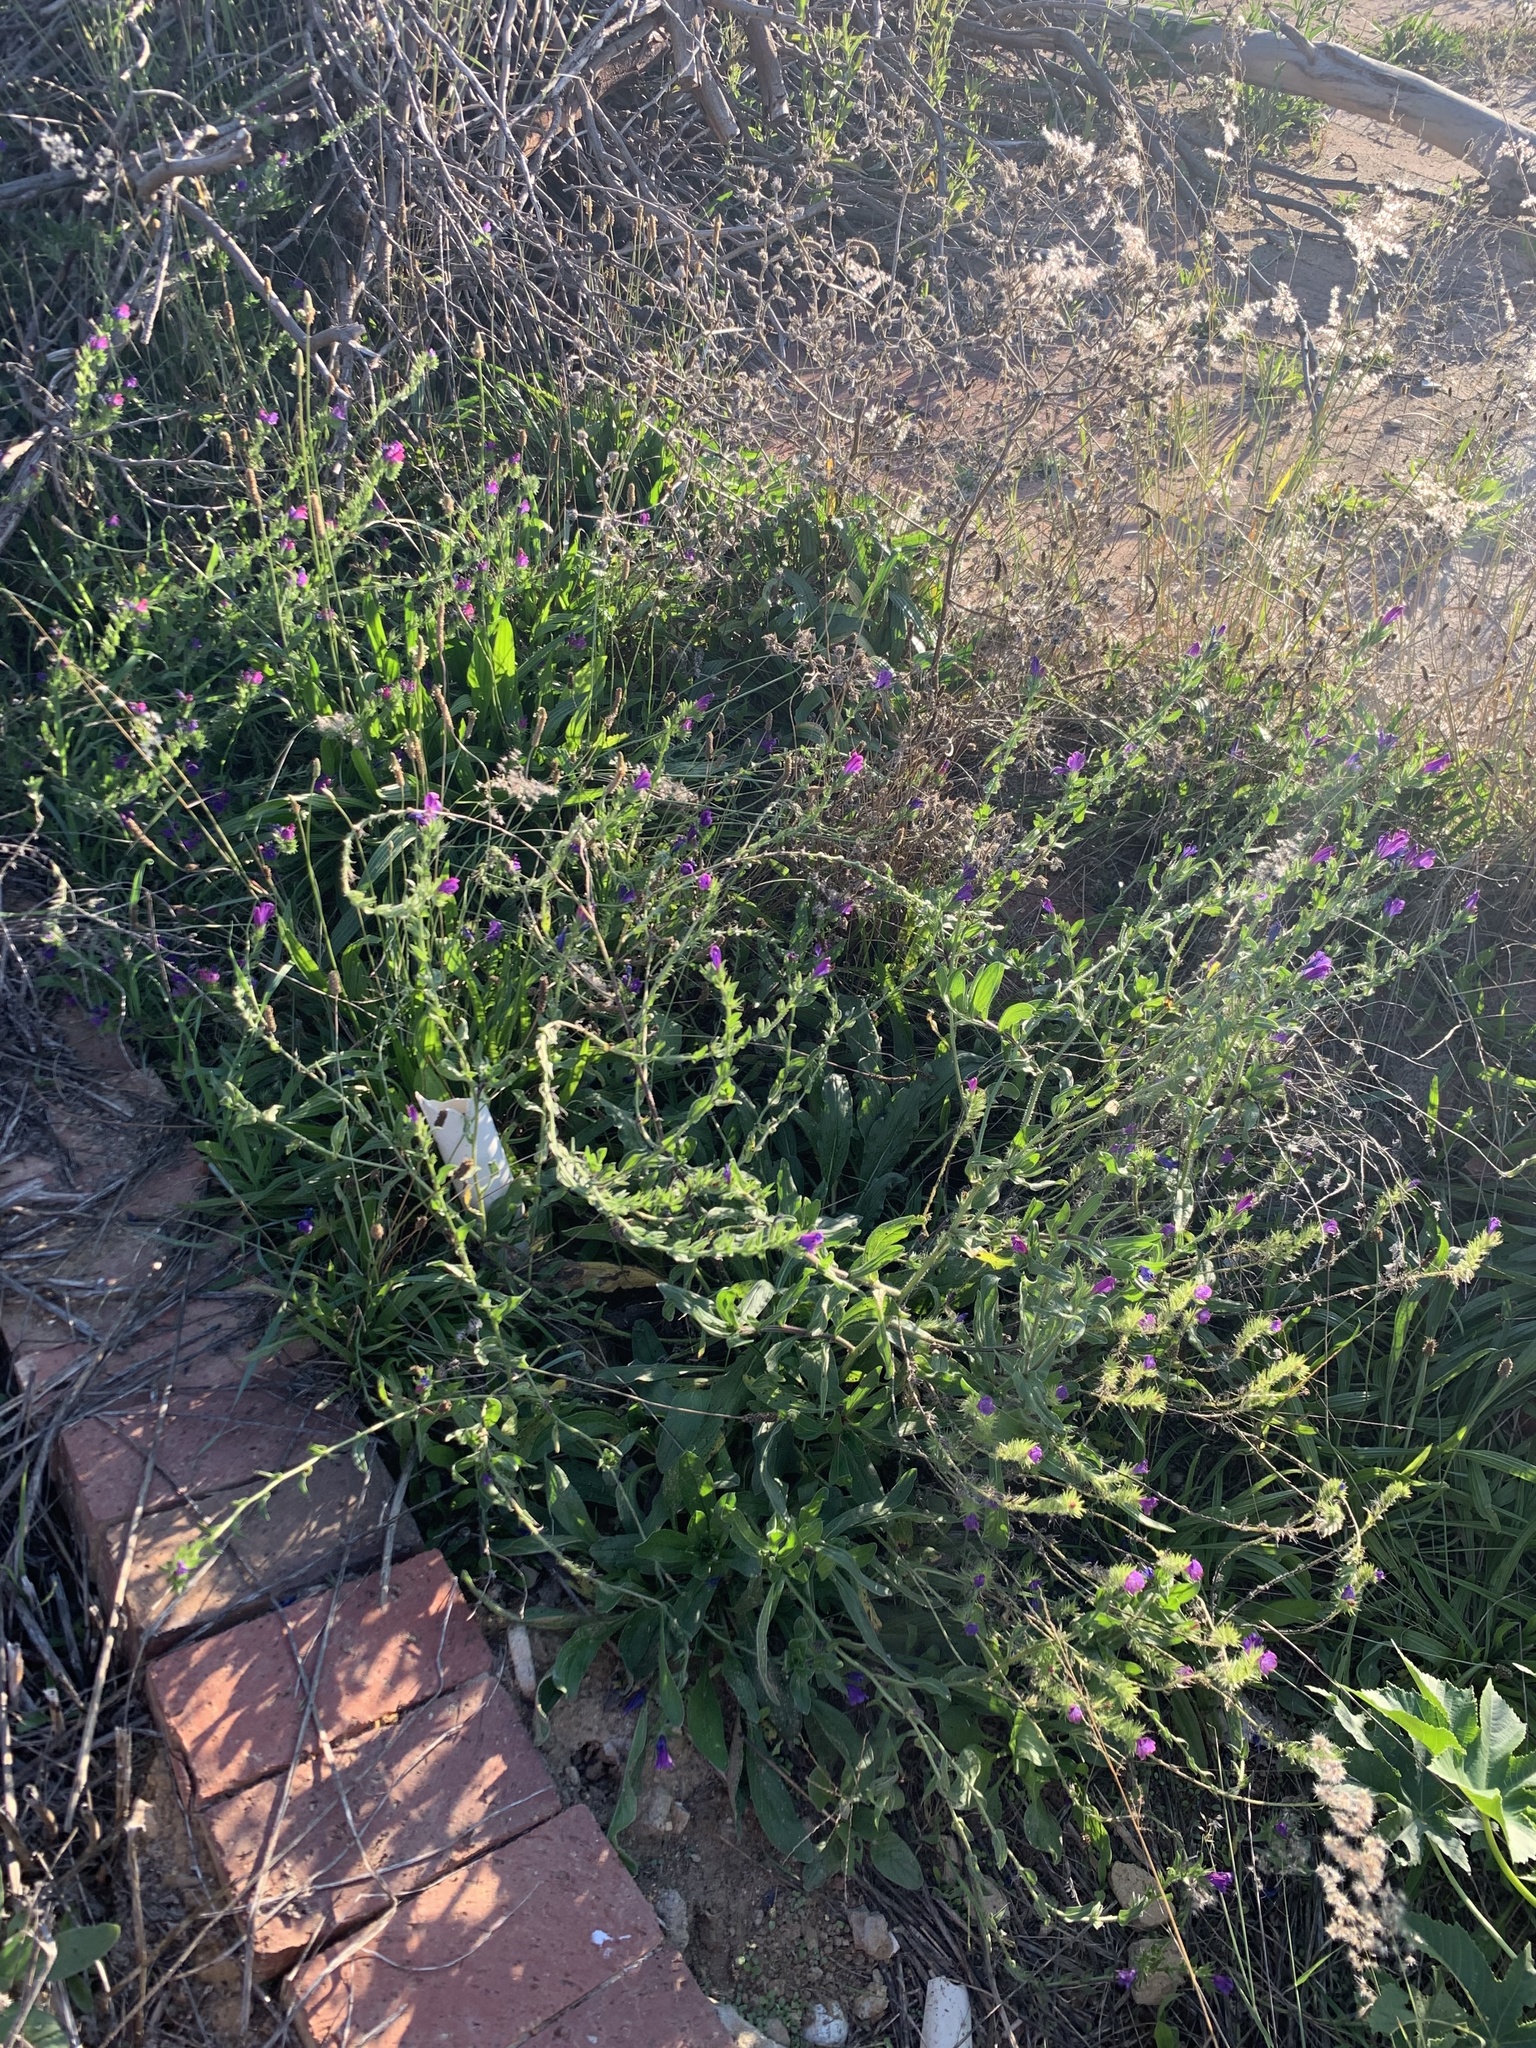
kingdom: Plantae
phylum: Tracheophyta
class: Magnoliopsida
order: Boraginales
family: Boraginaceae
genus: Echium
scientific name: Echium plantagineum
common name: Purple viper's-bugloss
